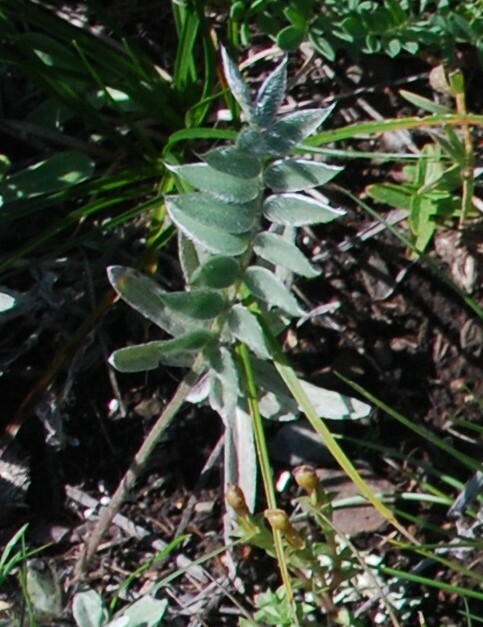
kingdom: Plantae
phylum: Tracheophyta
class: Magnoliopsida
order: Fabales
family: Fabaceae
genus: Oxytropis
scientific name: Oxytropis strobilacea
